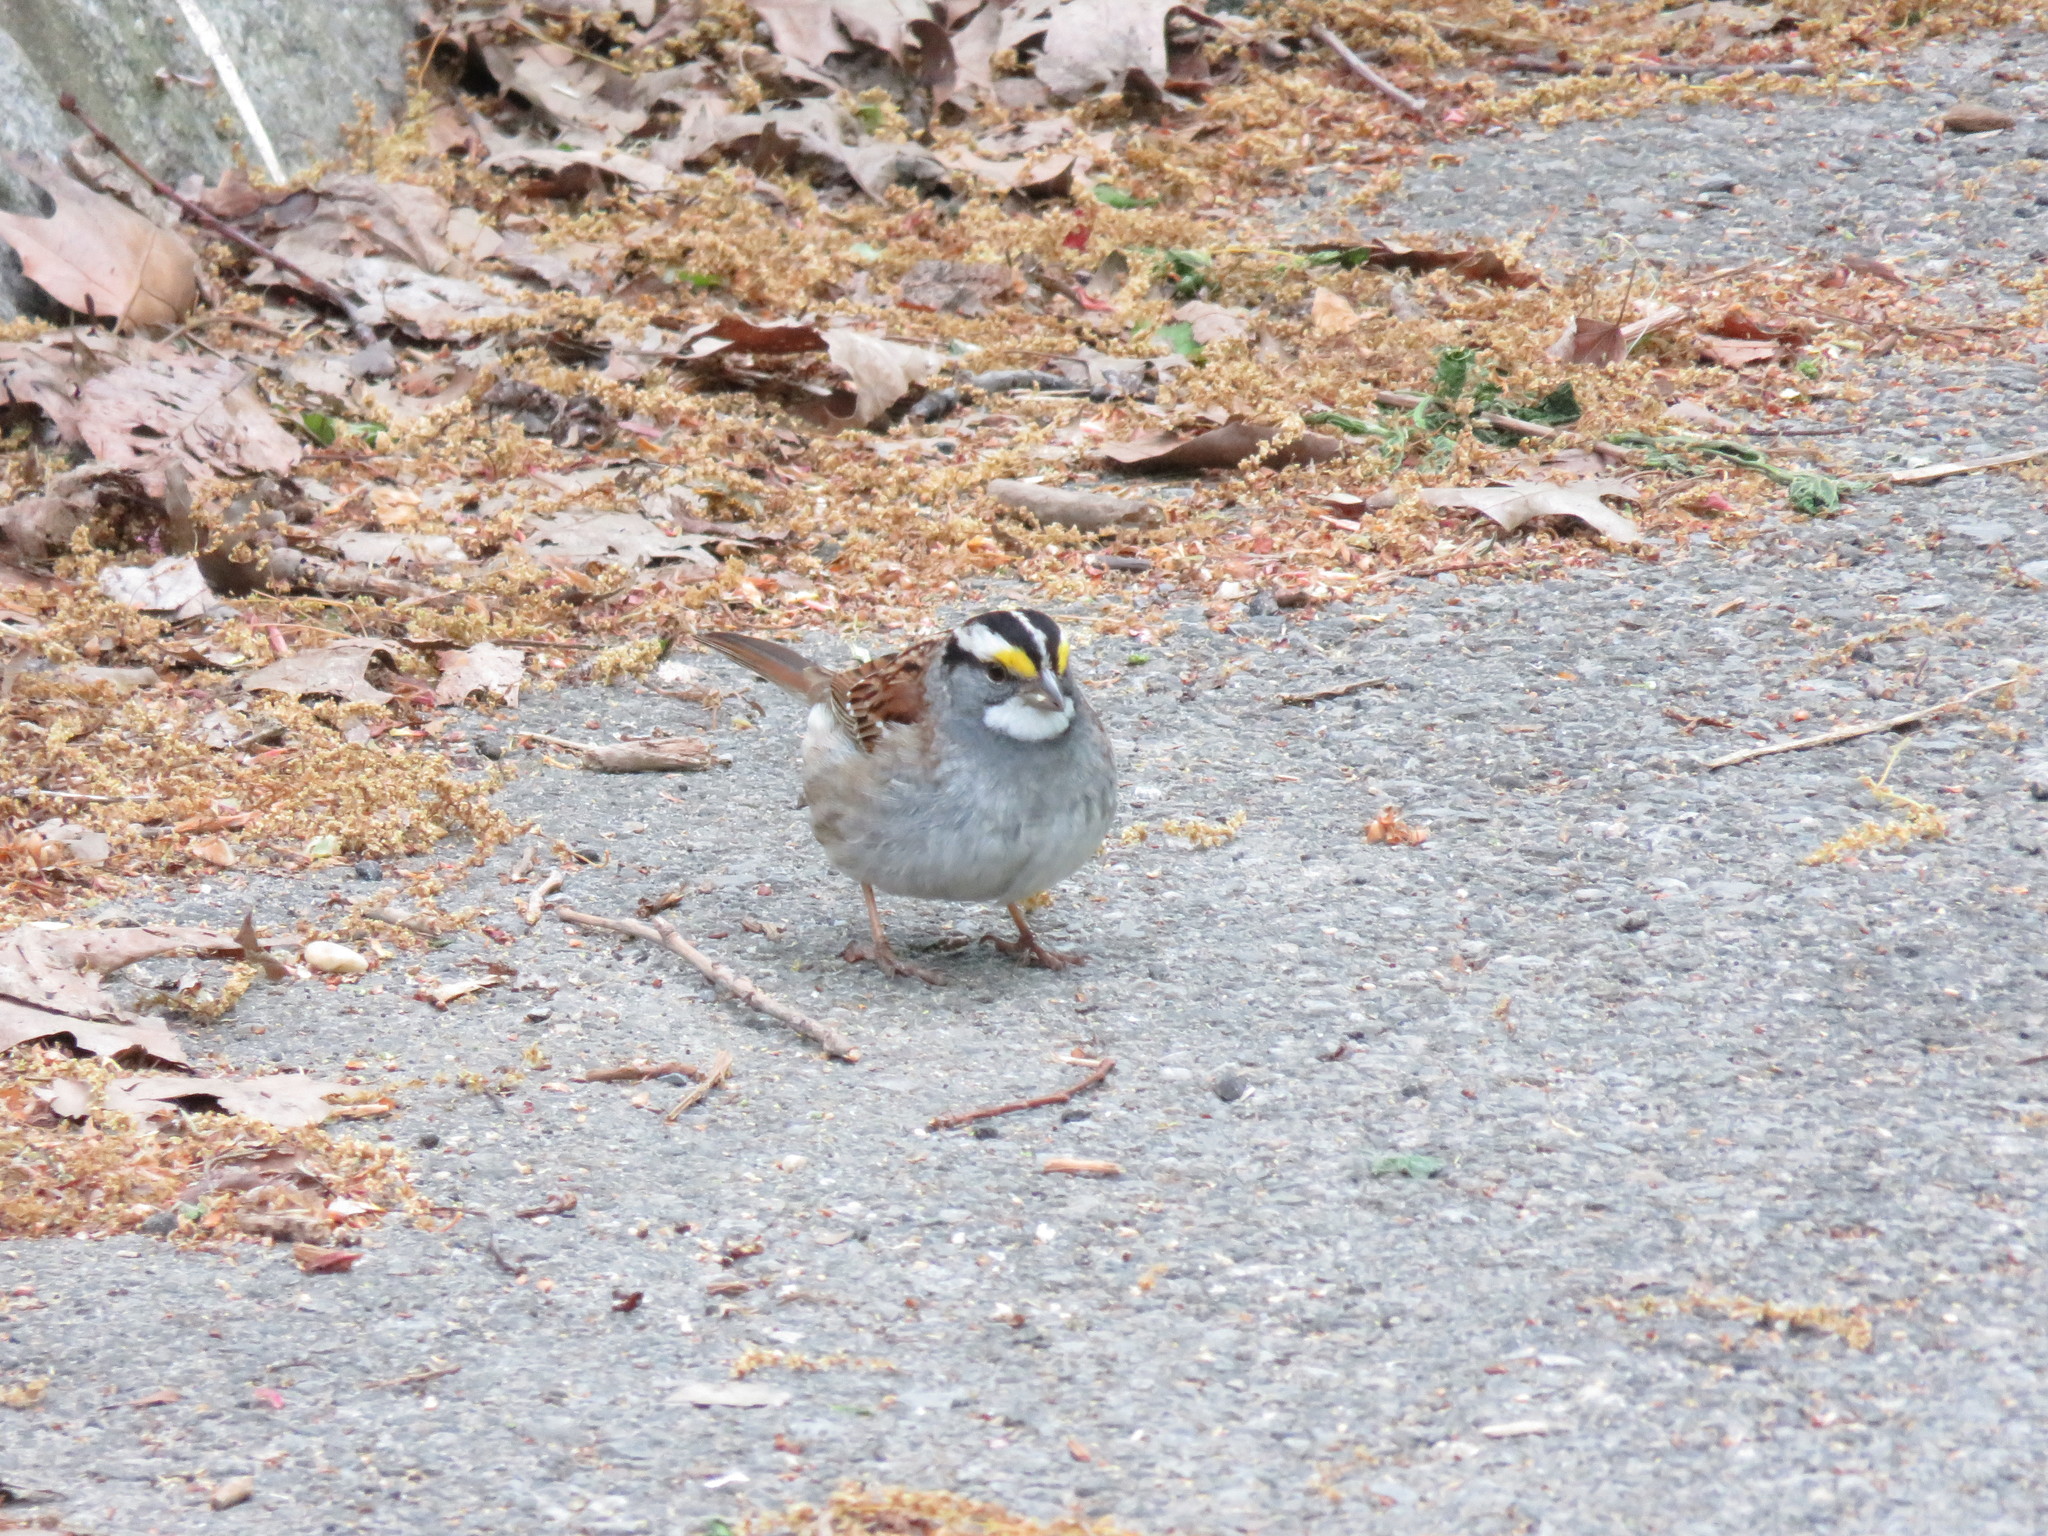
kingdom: Animalia
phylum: Chordata
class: Aves
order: Passeriformes
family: Passerellidae
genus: Zonotrichia
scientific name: Zonotrichia albicollis
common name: White-throated sparrow
